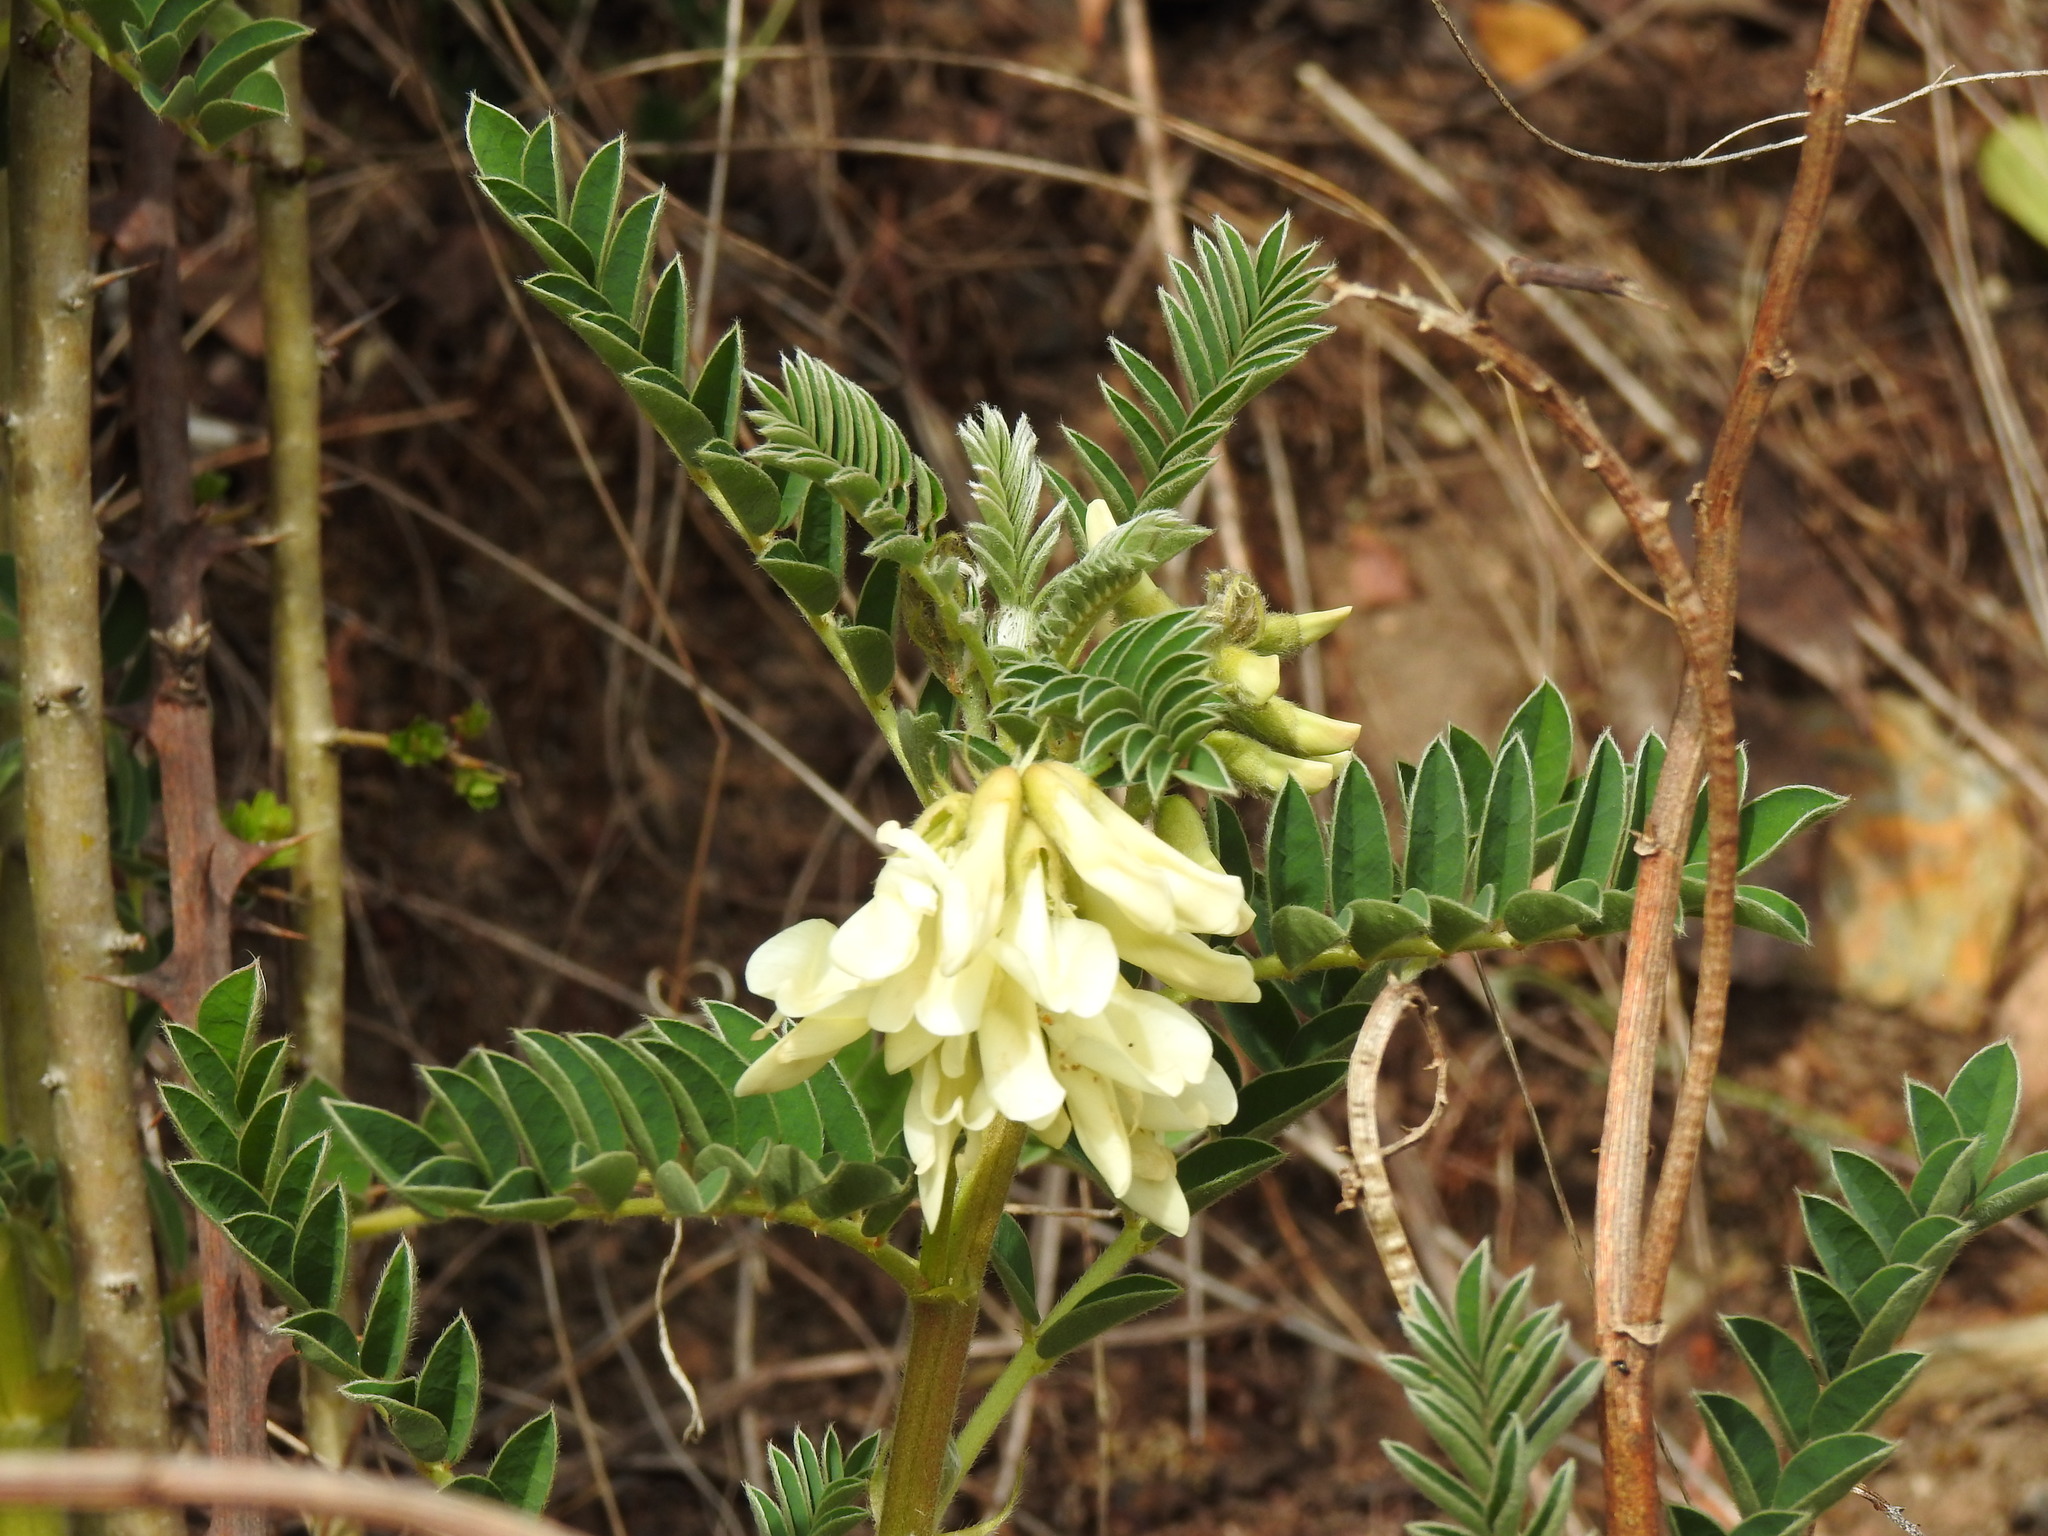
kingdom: Plantae
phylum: Tracheophyta
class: Magnoliopsida
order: Fabales
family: Fabaceae
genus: Erophaca
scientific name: Erophaca baetica
